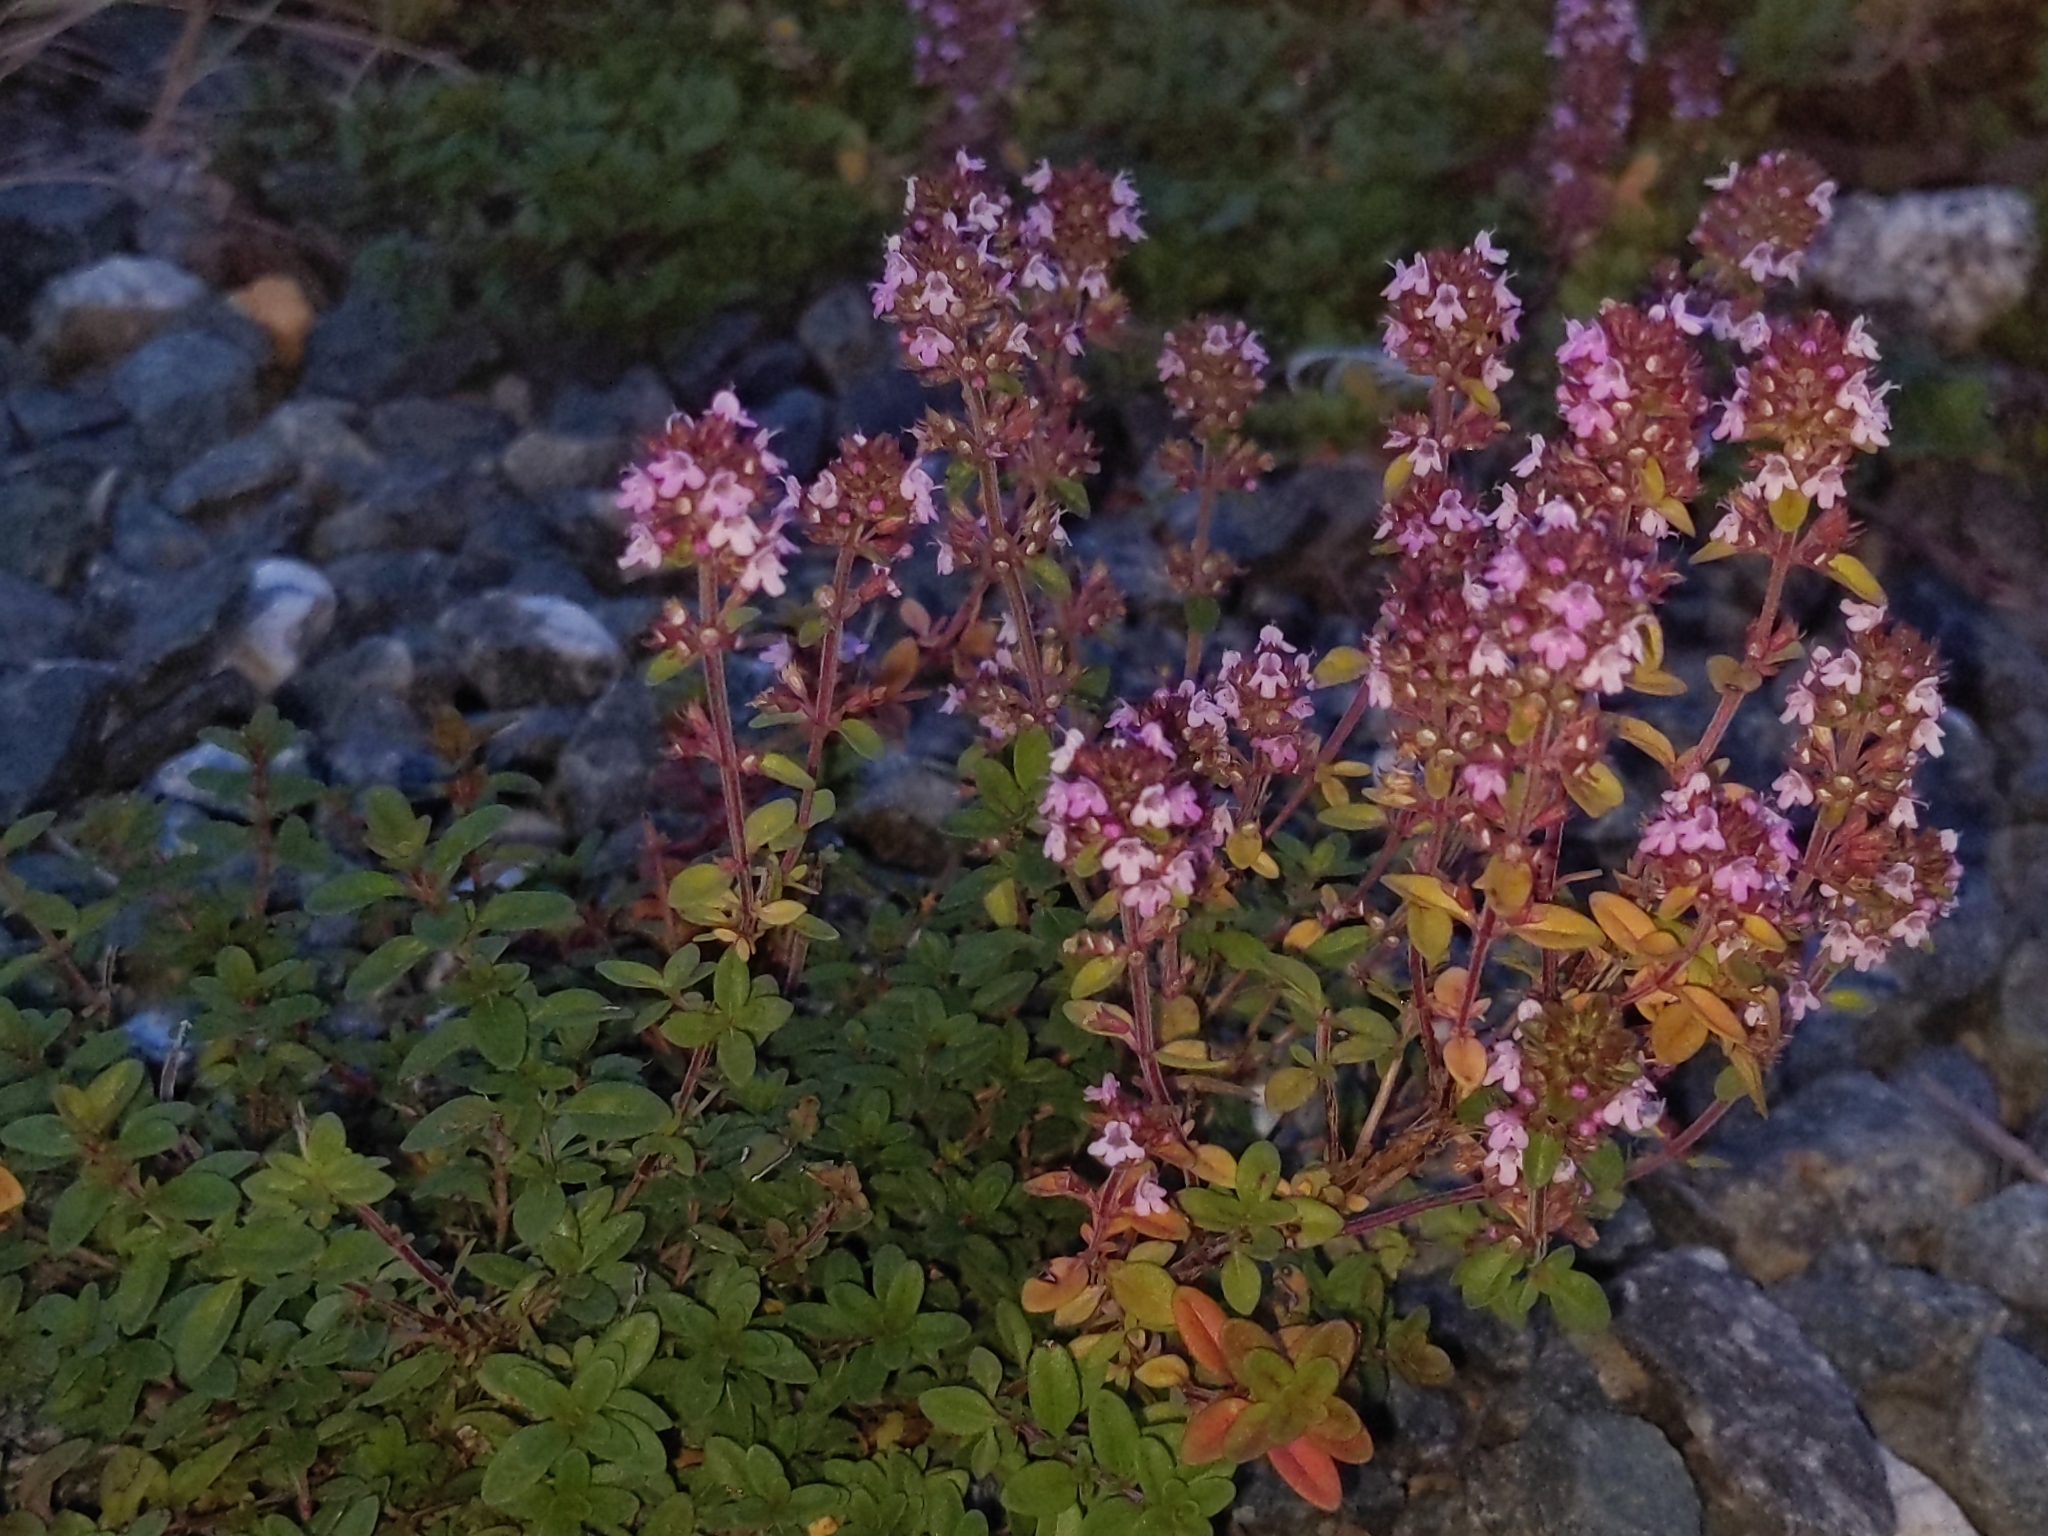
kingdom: Plantae
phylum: Tracheophyta
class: Magnoliopsida
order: Lamiales
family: Lamiaceae
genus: Thymus
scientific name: Thymus pulegioides
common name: Large thyme
